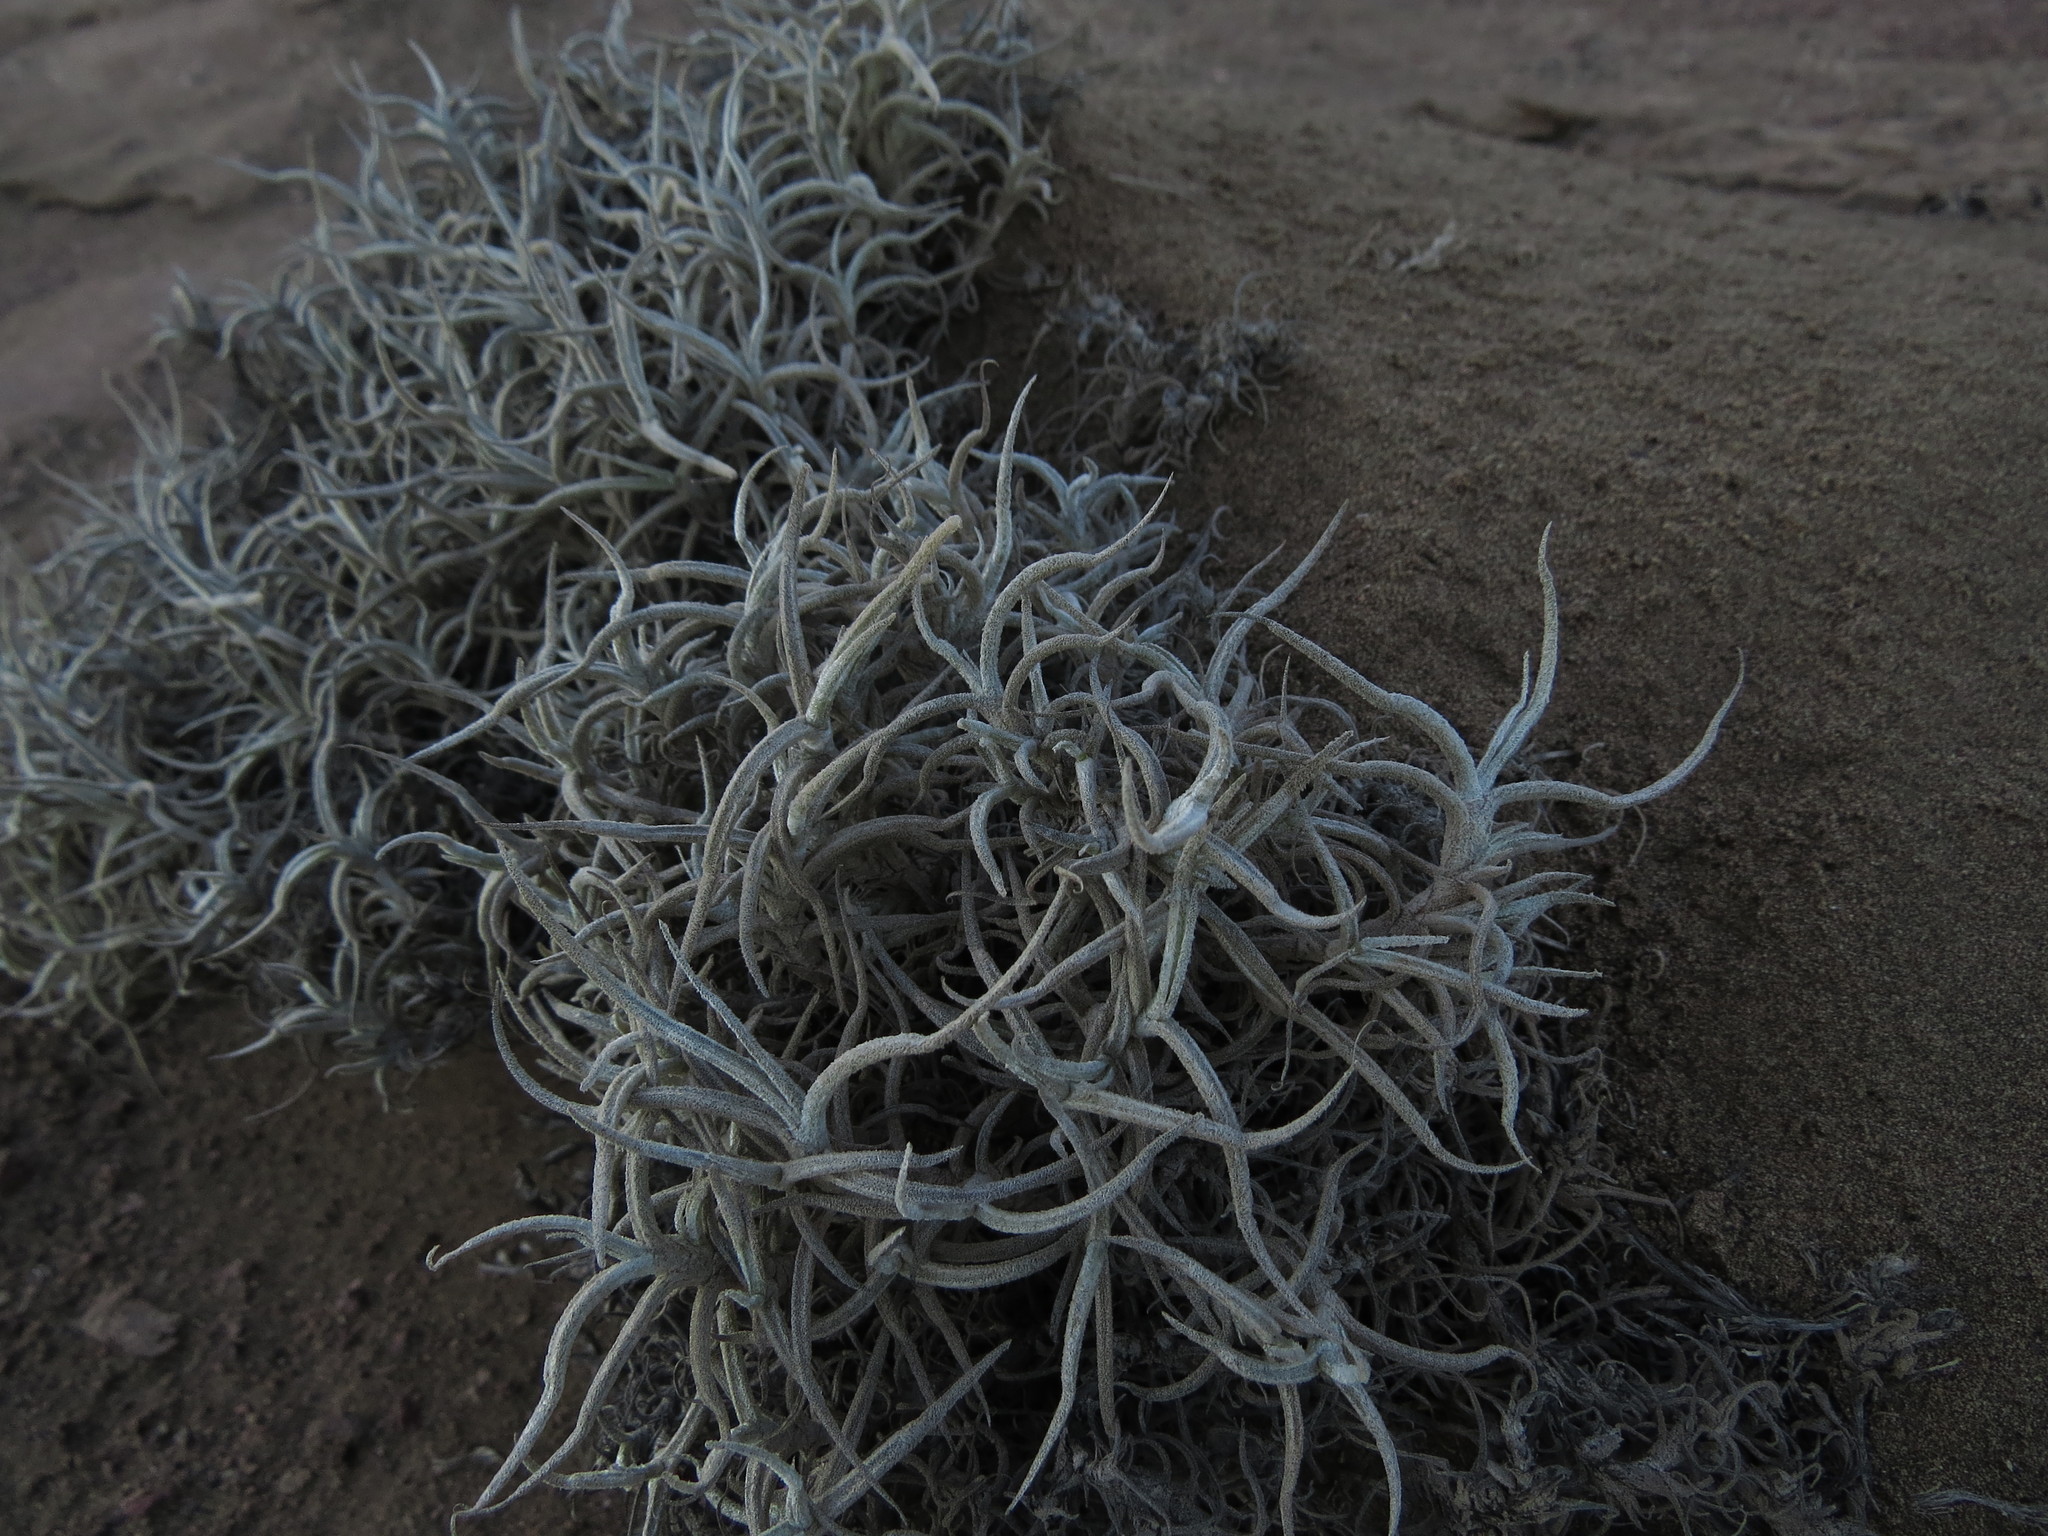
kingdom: Plantae
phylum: Tracheophyta
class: Liliopsida
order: Poales
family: Bromeliaceae
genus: Tillandsia
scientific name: Tillandsia landbeckii
